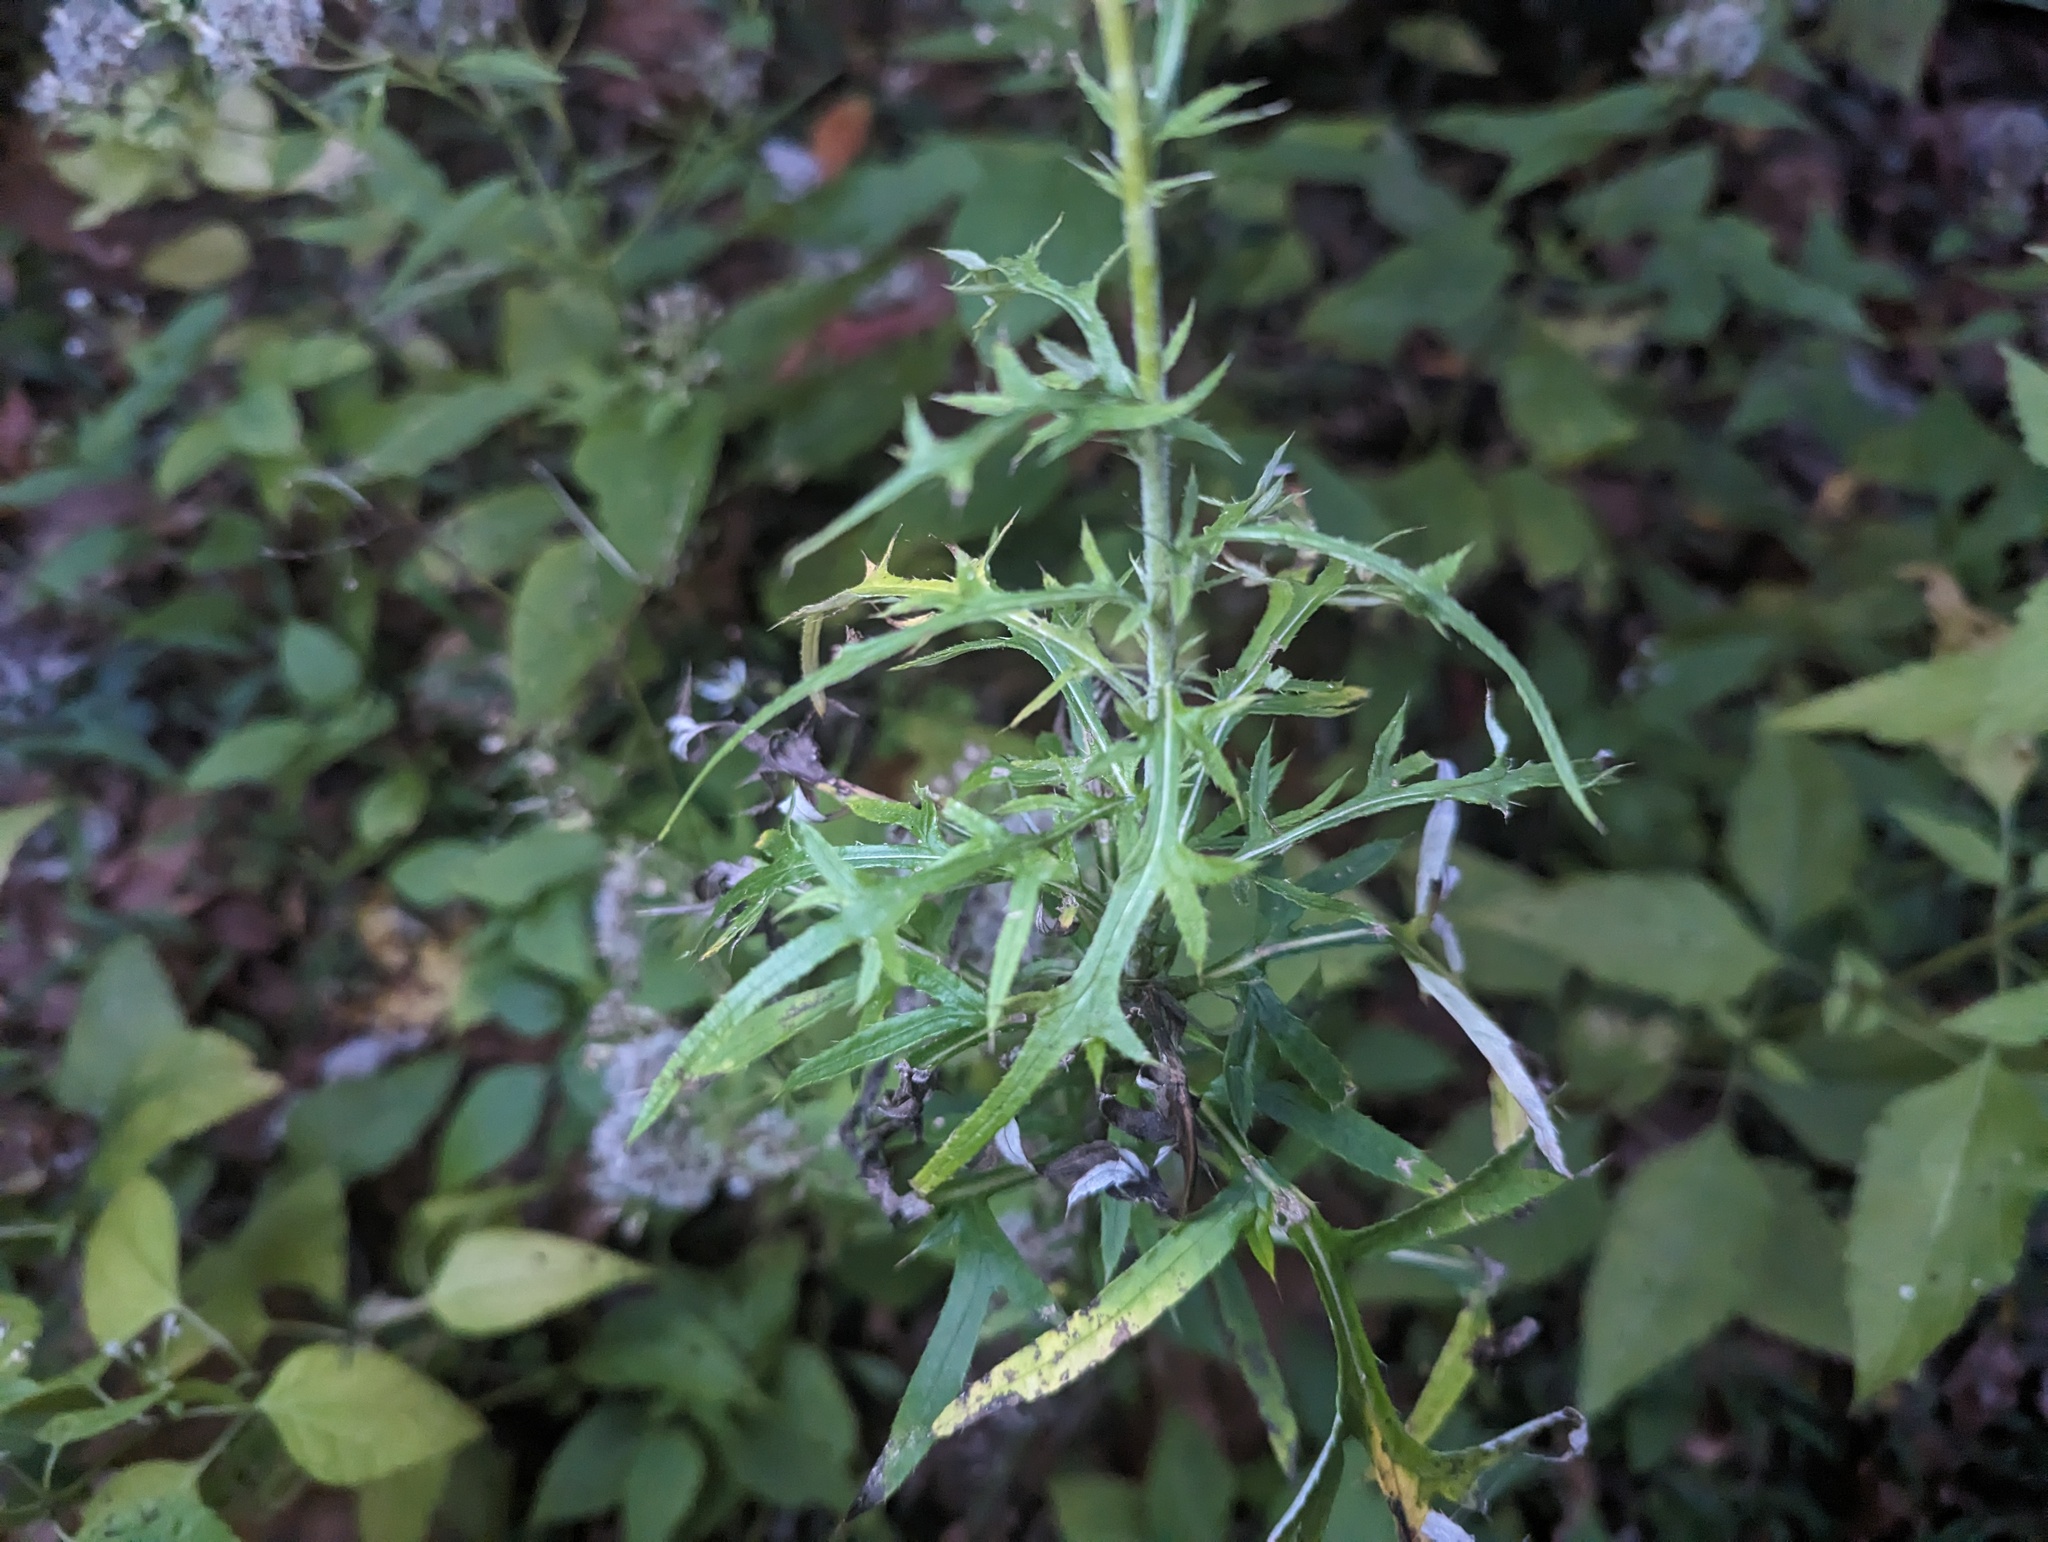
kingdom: Plantae
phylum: Tracheophyta
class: Magnoliopsida
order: Asterales
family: Asteraceae
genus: Cirsium
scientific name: Cirsium discolor
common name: Field thistle
